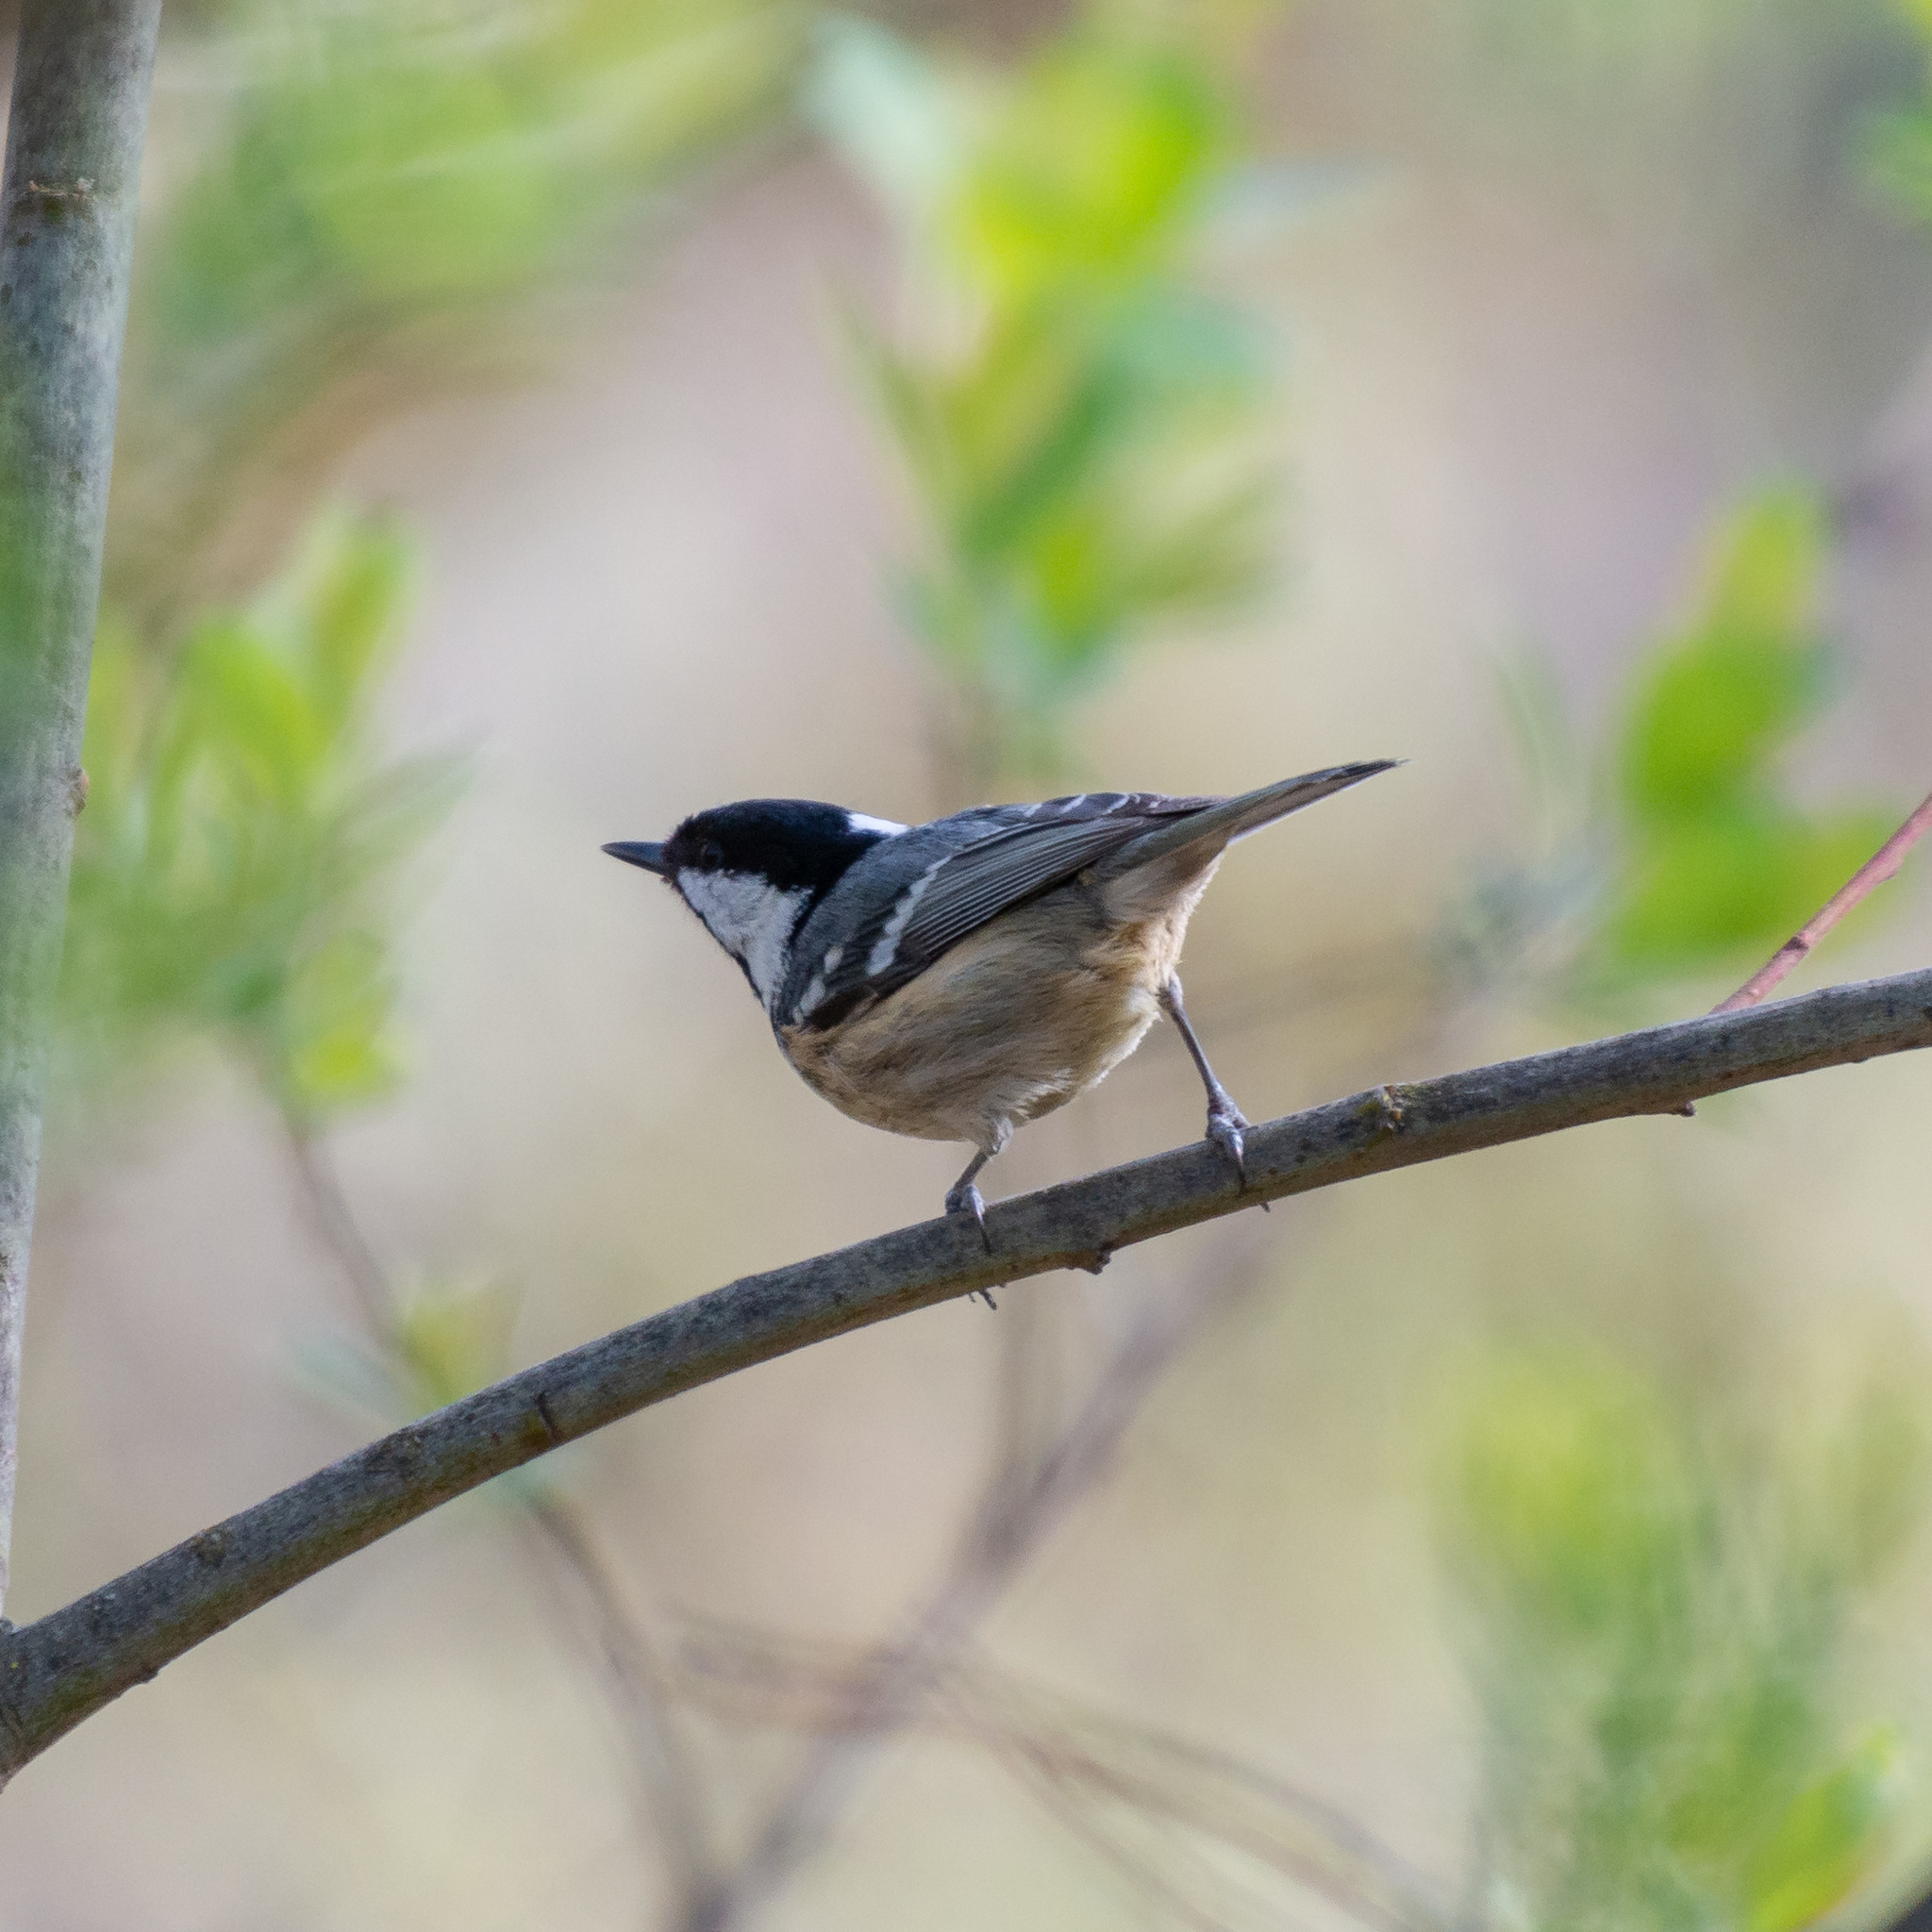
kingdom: Animalia
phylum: Chordata
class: Aves
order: Passeriformes
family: Paridae
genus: Periparus
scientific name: Periparus ater
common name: Coal tit
